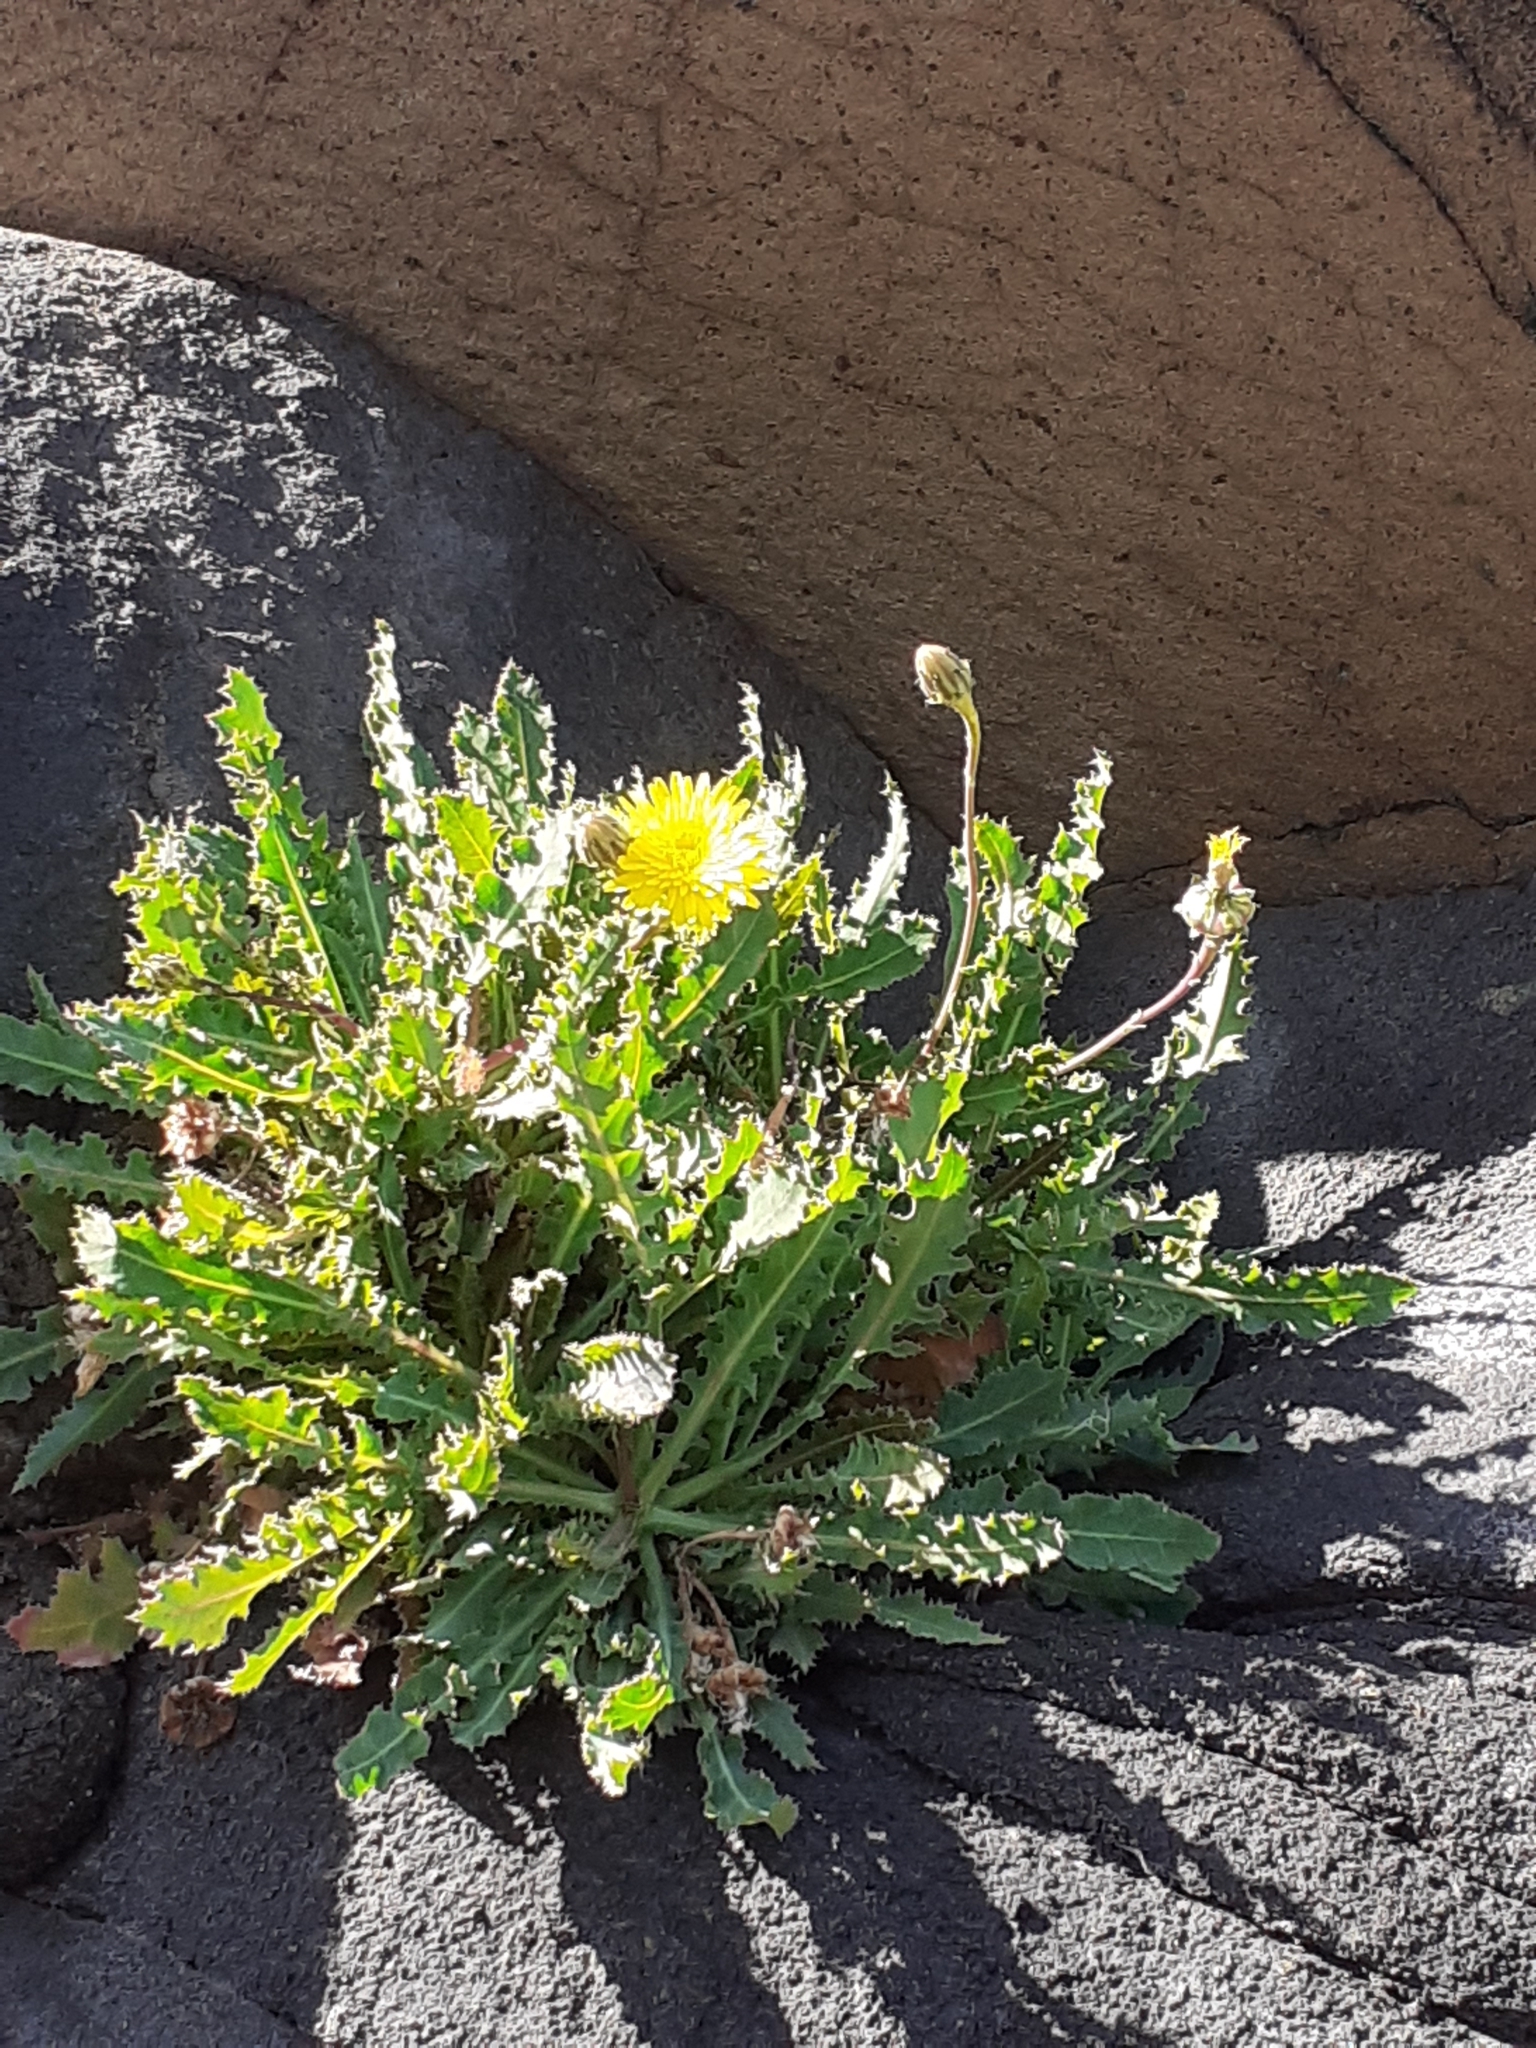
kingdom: Plantae
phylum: Tracheophyta
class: Magnoliopsida
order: Asterales
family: Asteraceae
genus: Reichardia
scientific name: Reichardia ligulata
